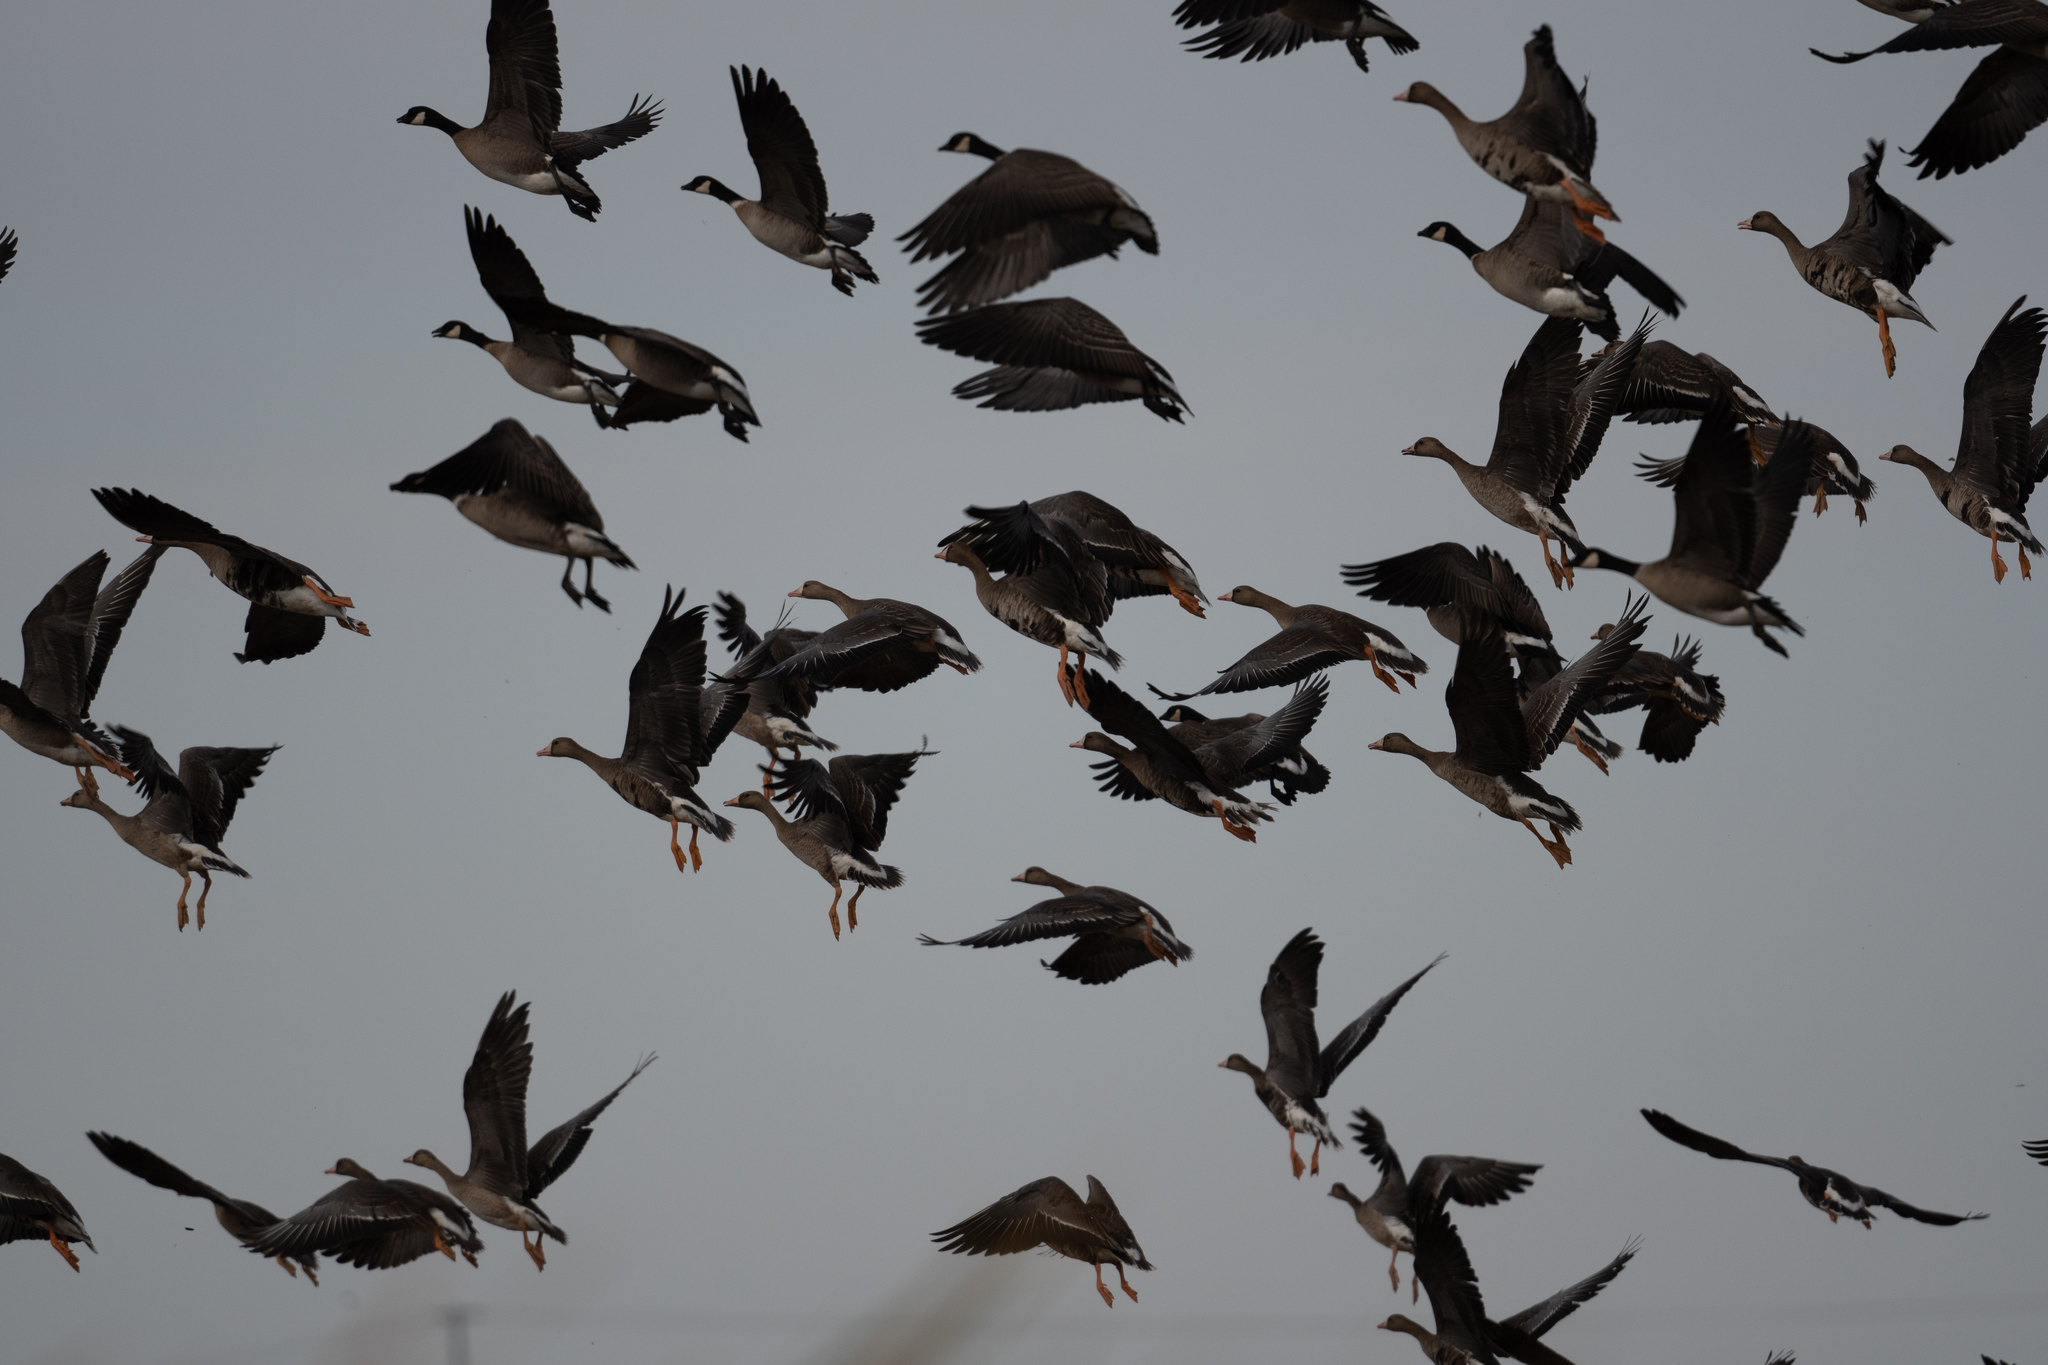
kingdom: Animalia
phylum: Chordata
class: Aves
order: Anseriformes
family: Anatidae
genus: Anser
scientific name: Anser albifrons
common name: Greater white-fronted goose
